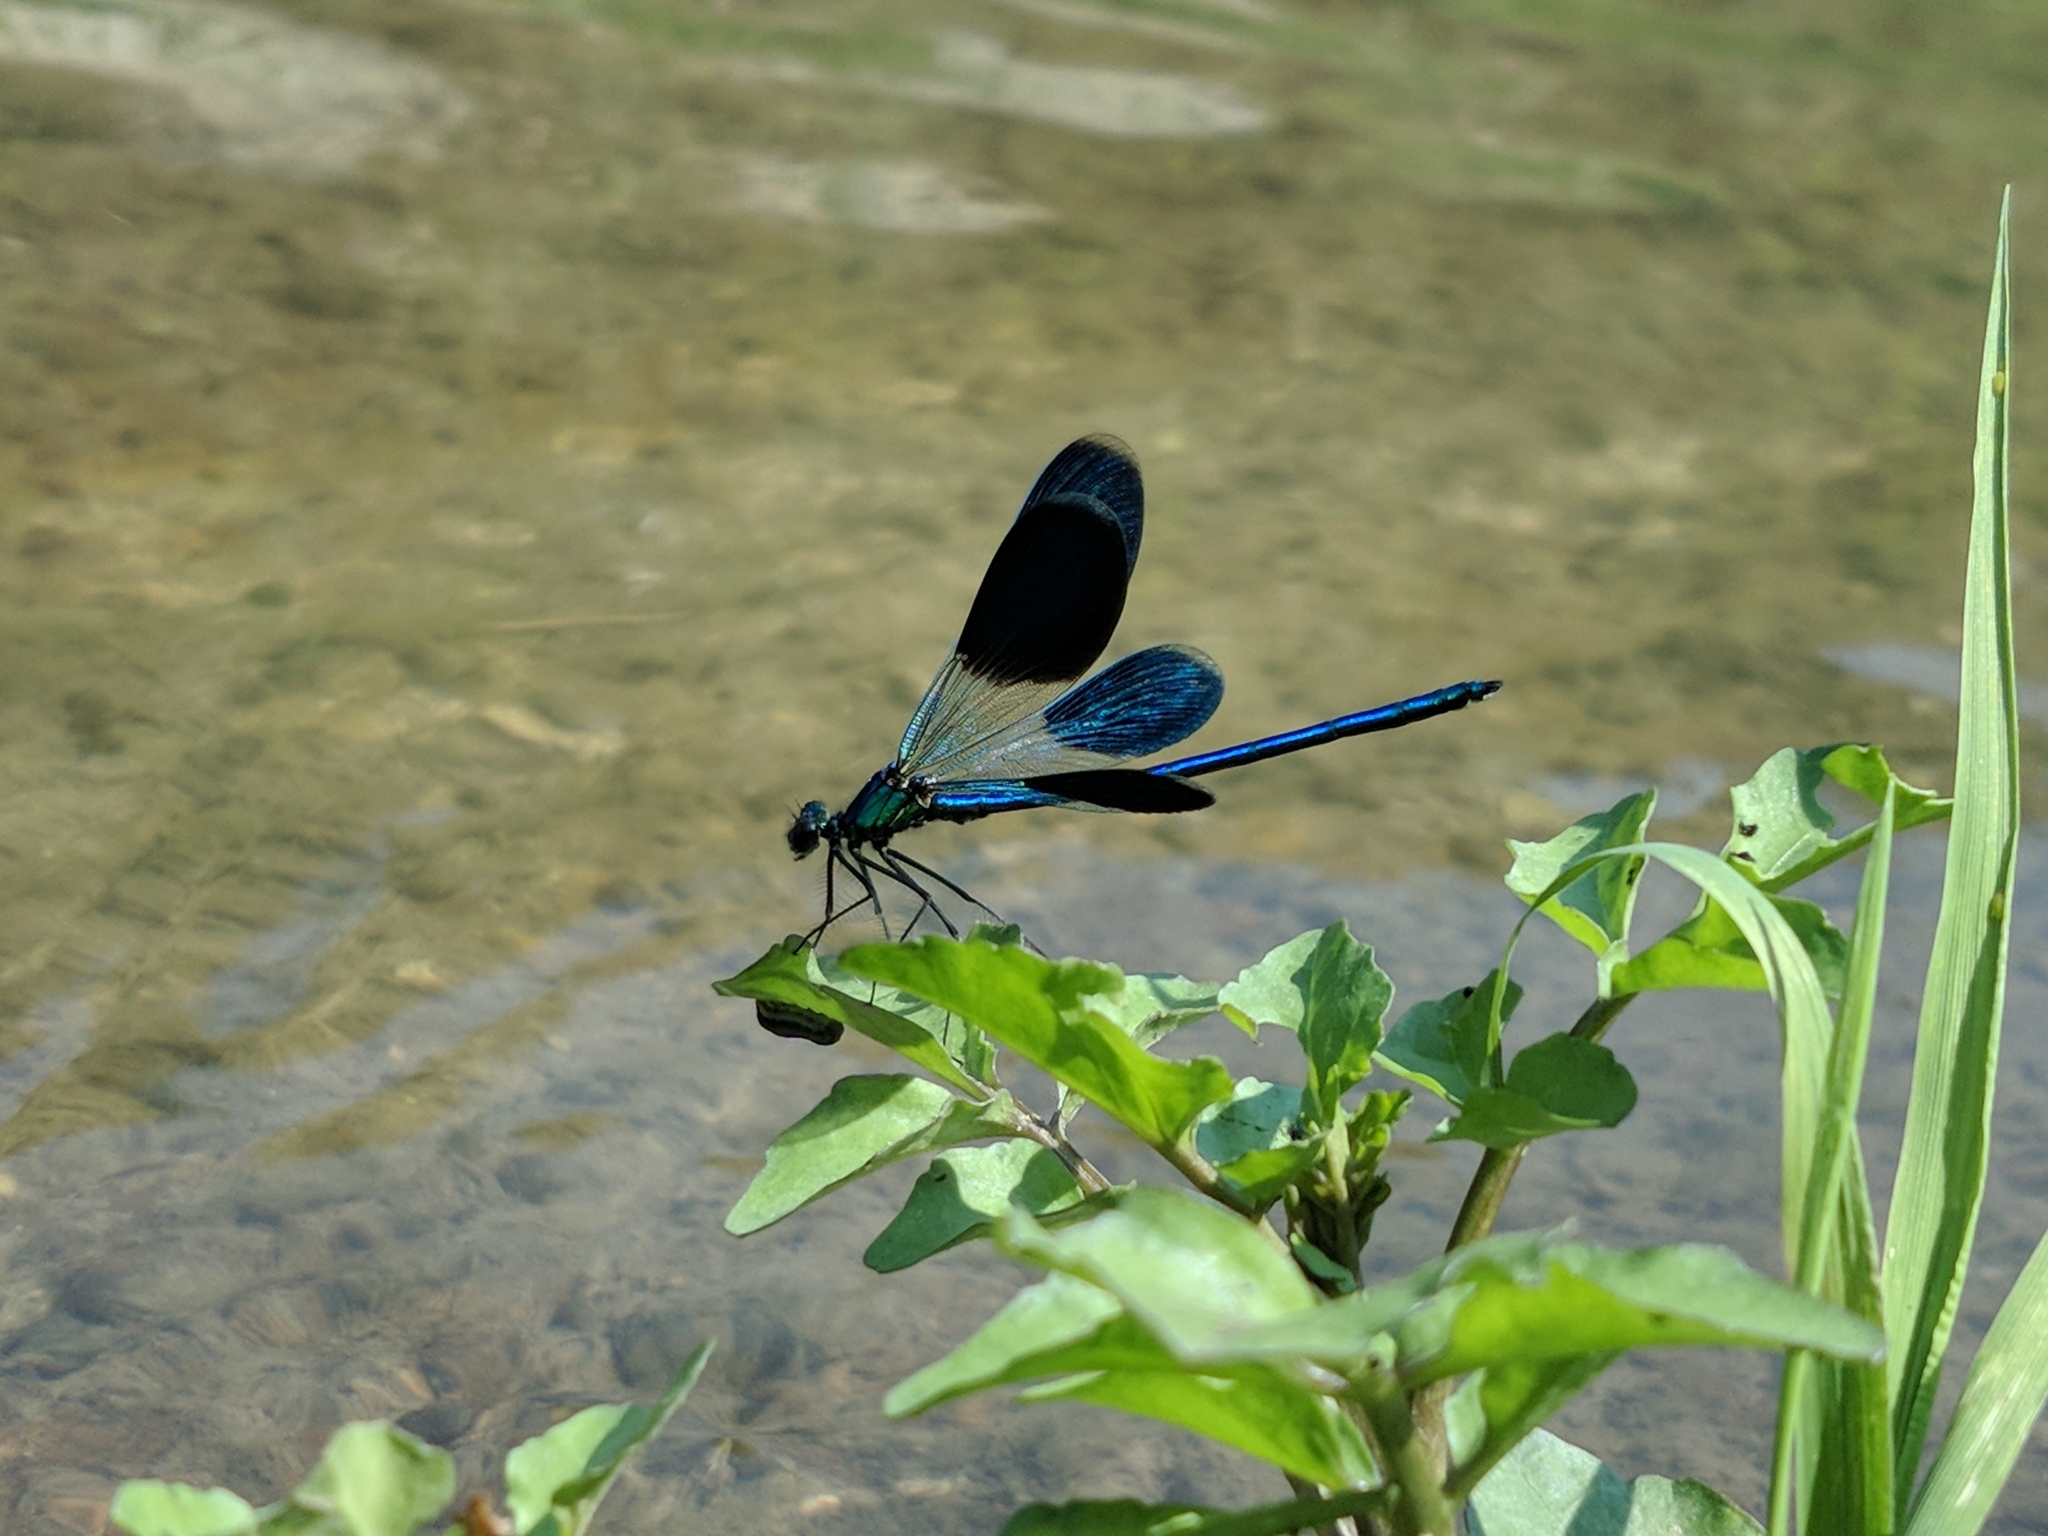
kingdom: Animalia
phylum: Arthropoda
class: Insecta
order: Odonata
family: Calopterygidae
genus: Calopteryx
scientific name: Calopteryx splendens
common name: Banded demoiselle
